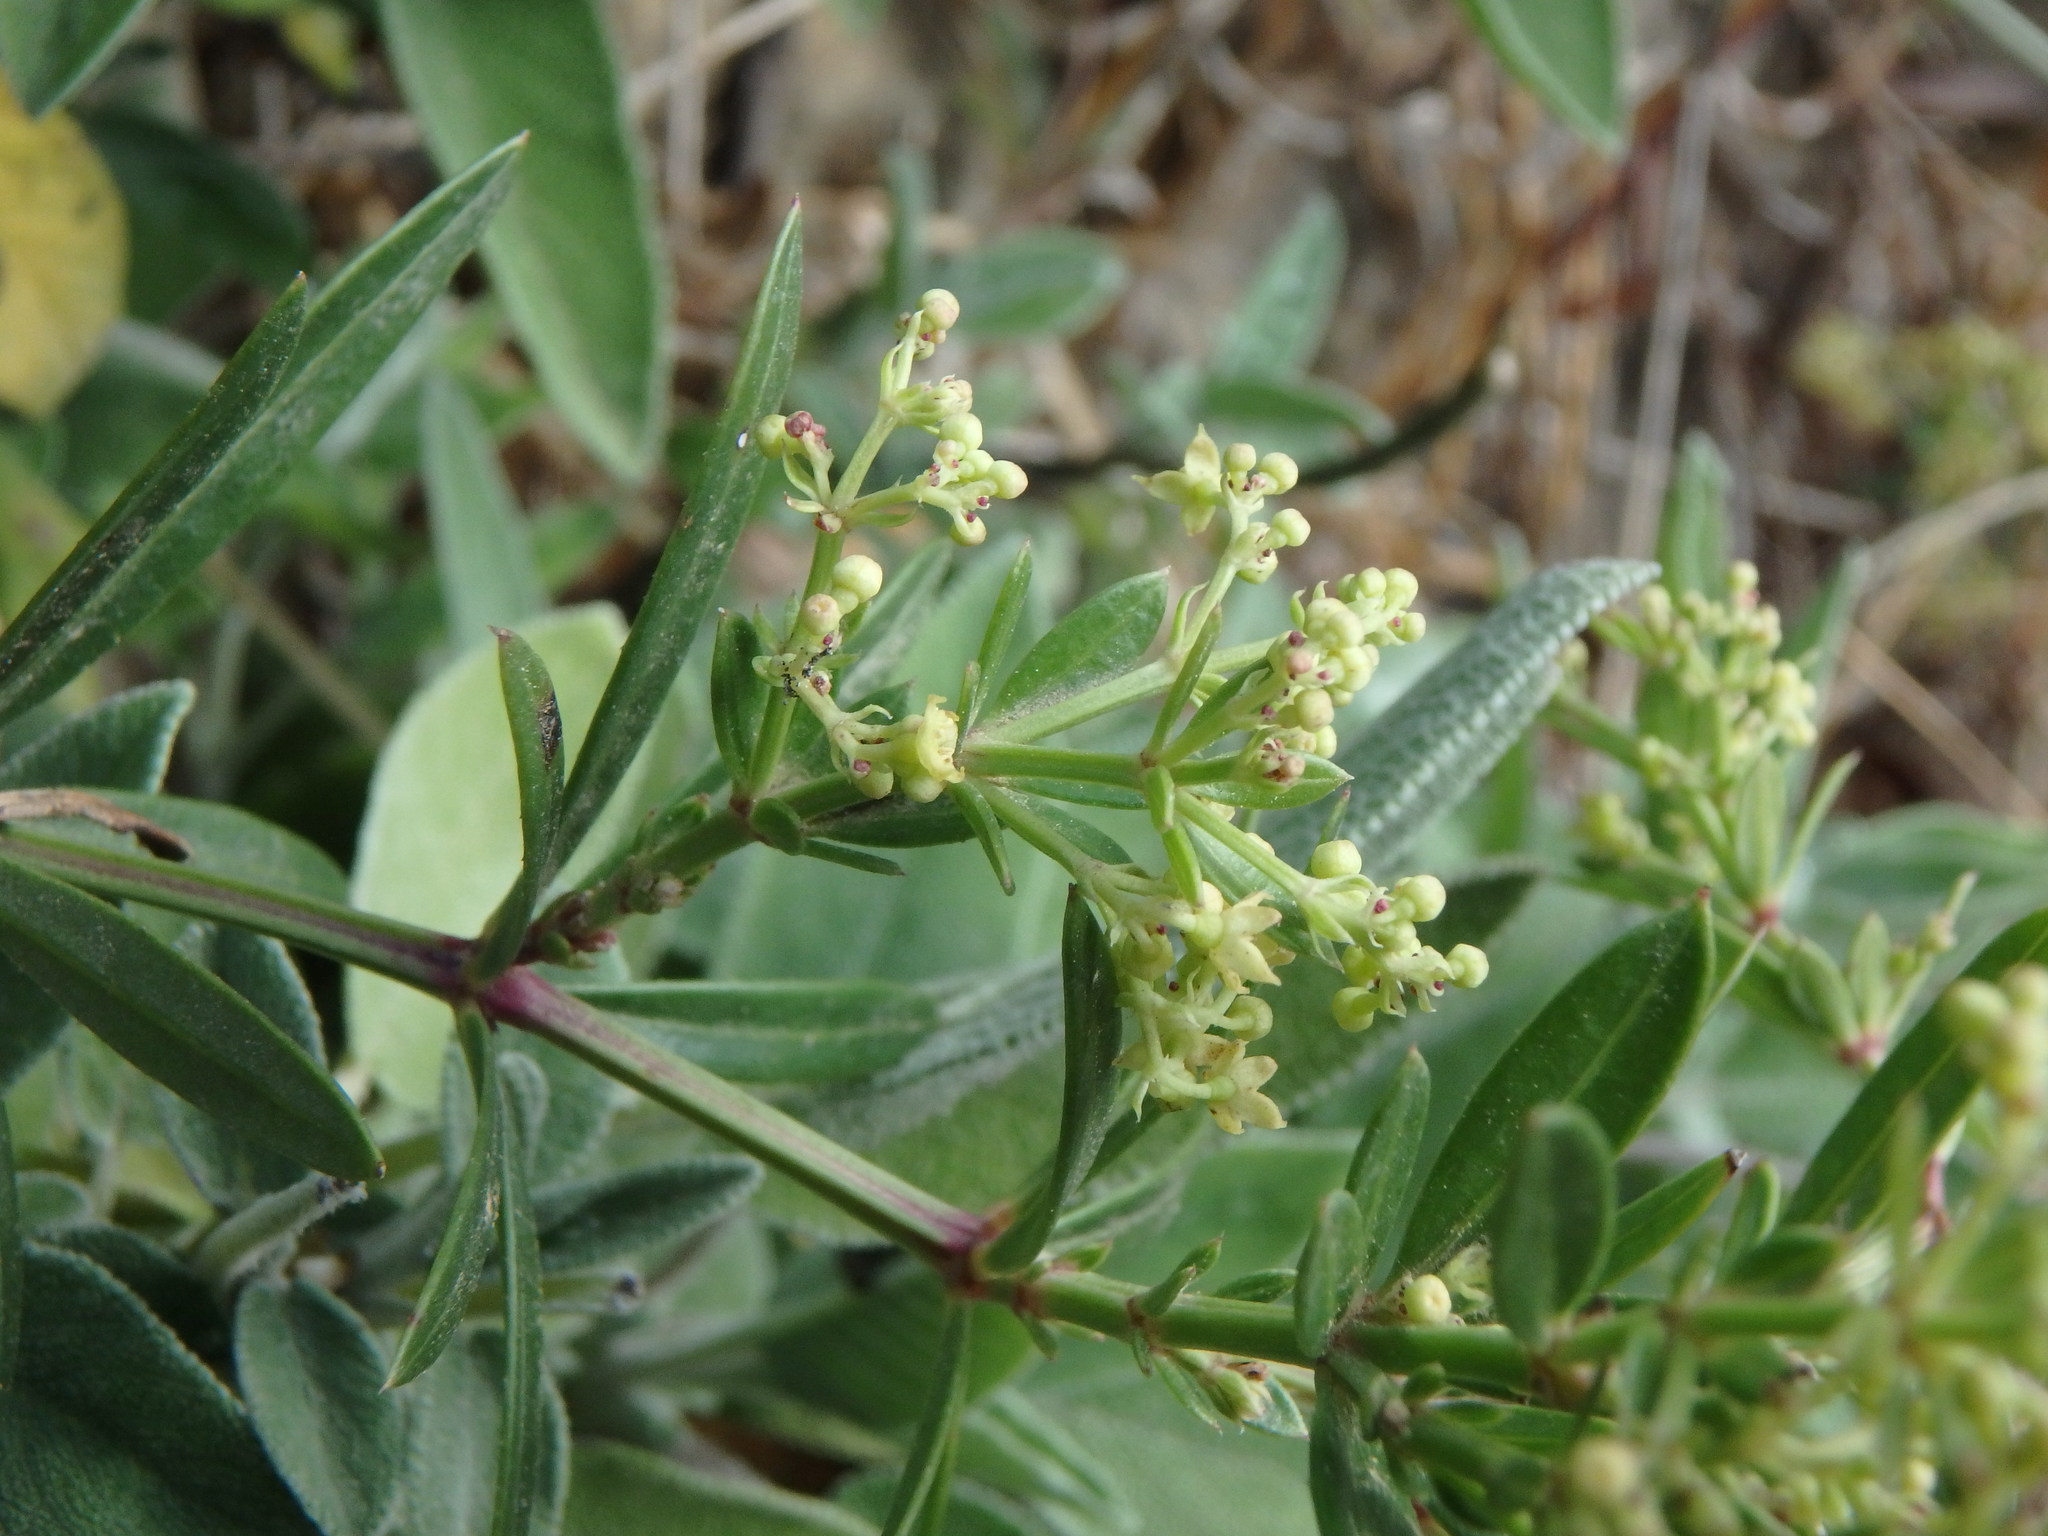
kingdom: Plantae
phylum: Tracheophyta
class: Magnoliopsida
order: Gentianales
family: Rubiaceae
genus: Rubia
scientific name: Rubia peregrina
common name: Wild madder
